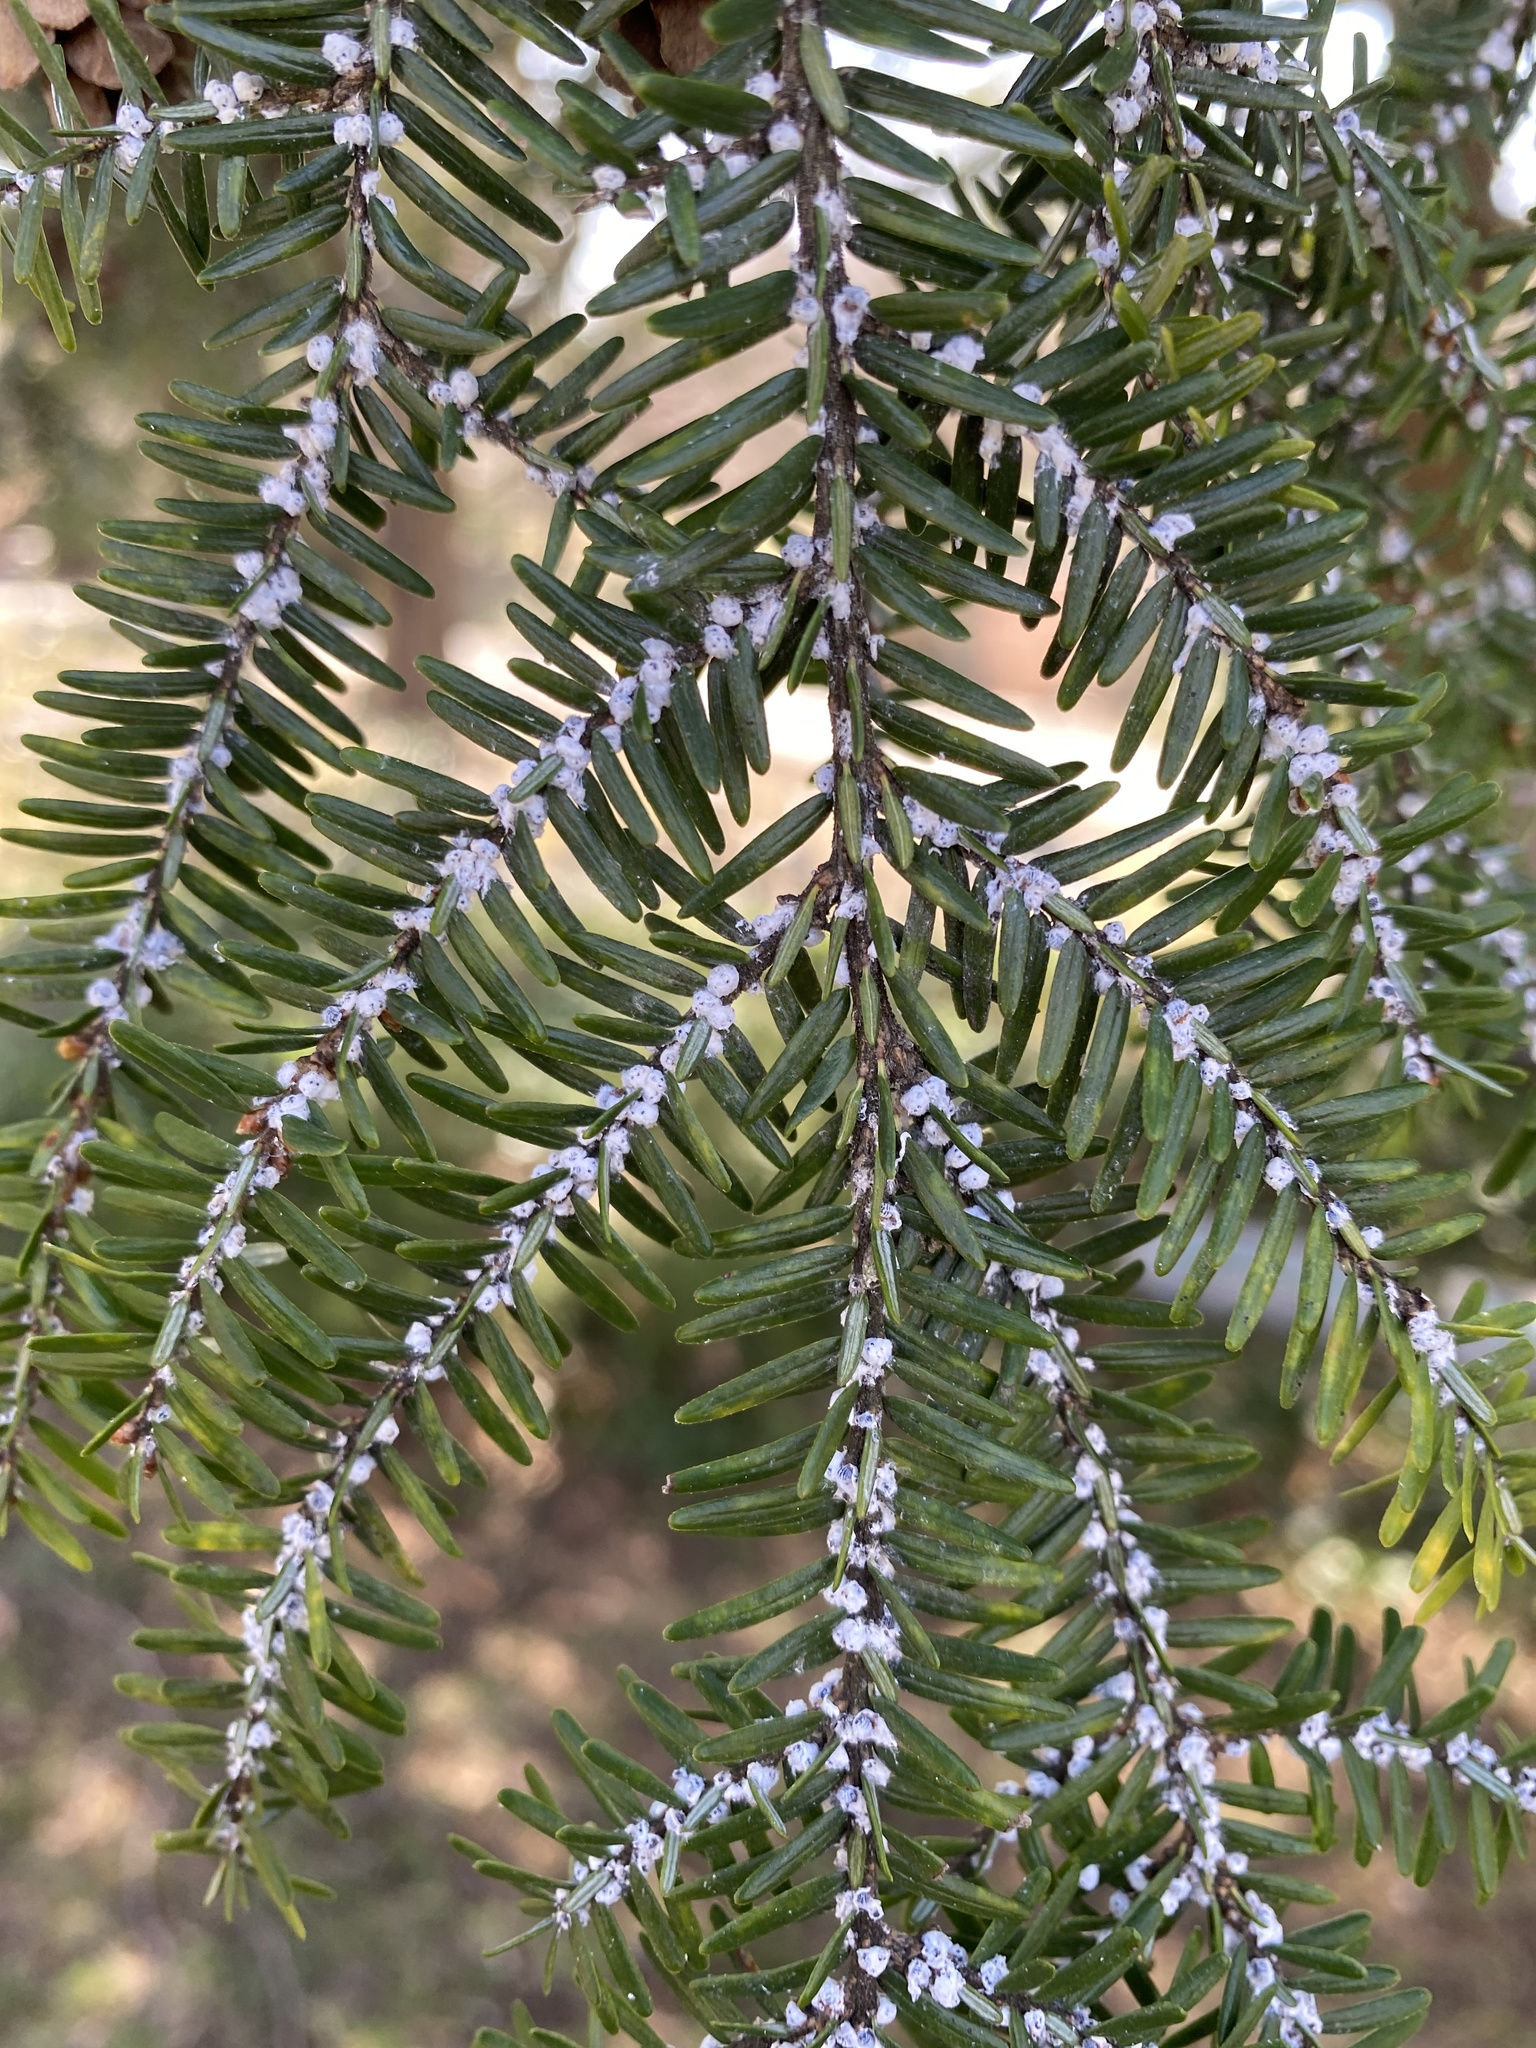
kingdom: Animalia
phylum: Arthropoda
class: Insecta
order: Hemiptera
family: Adelgidae
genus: Adelges
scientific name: Adelges tsugae
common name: Hemlock woolly adelgid
